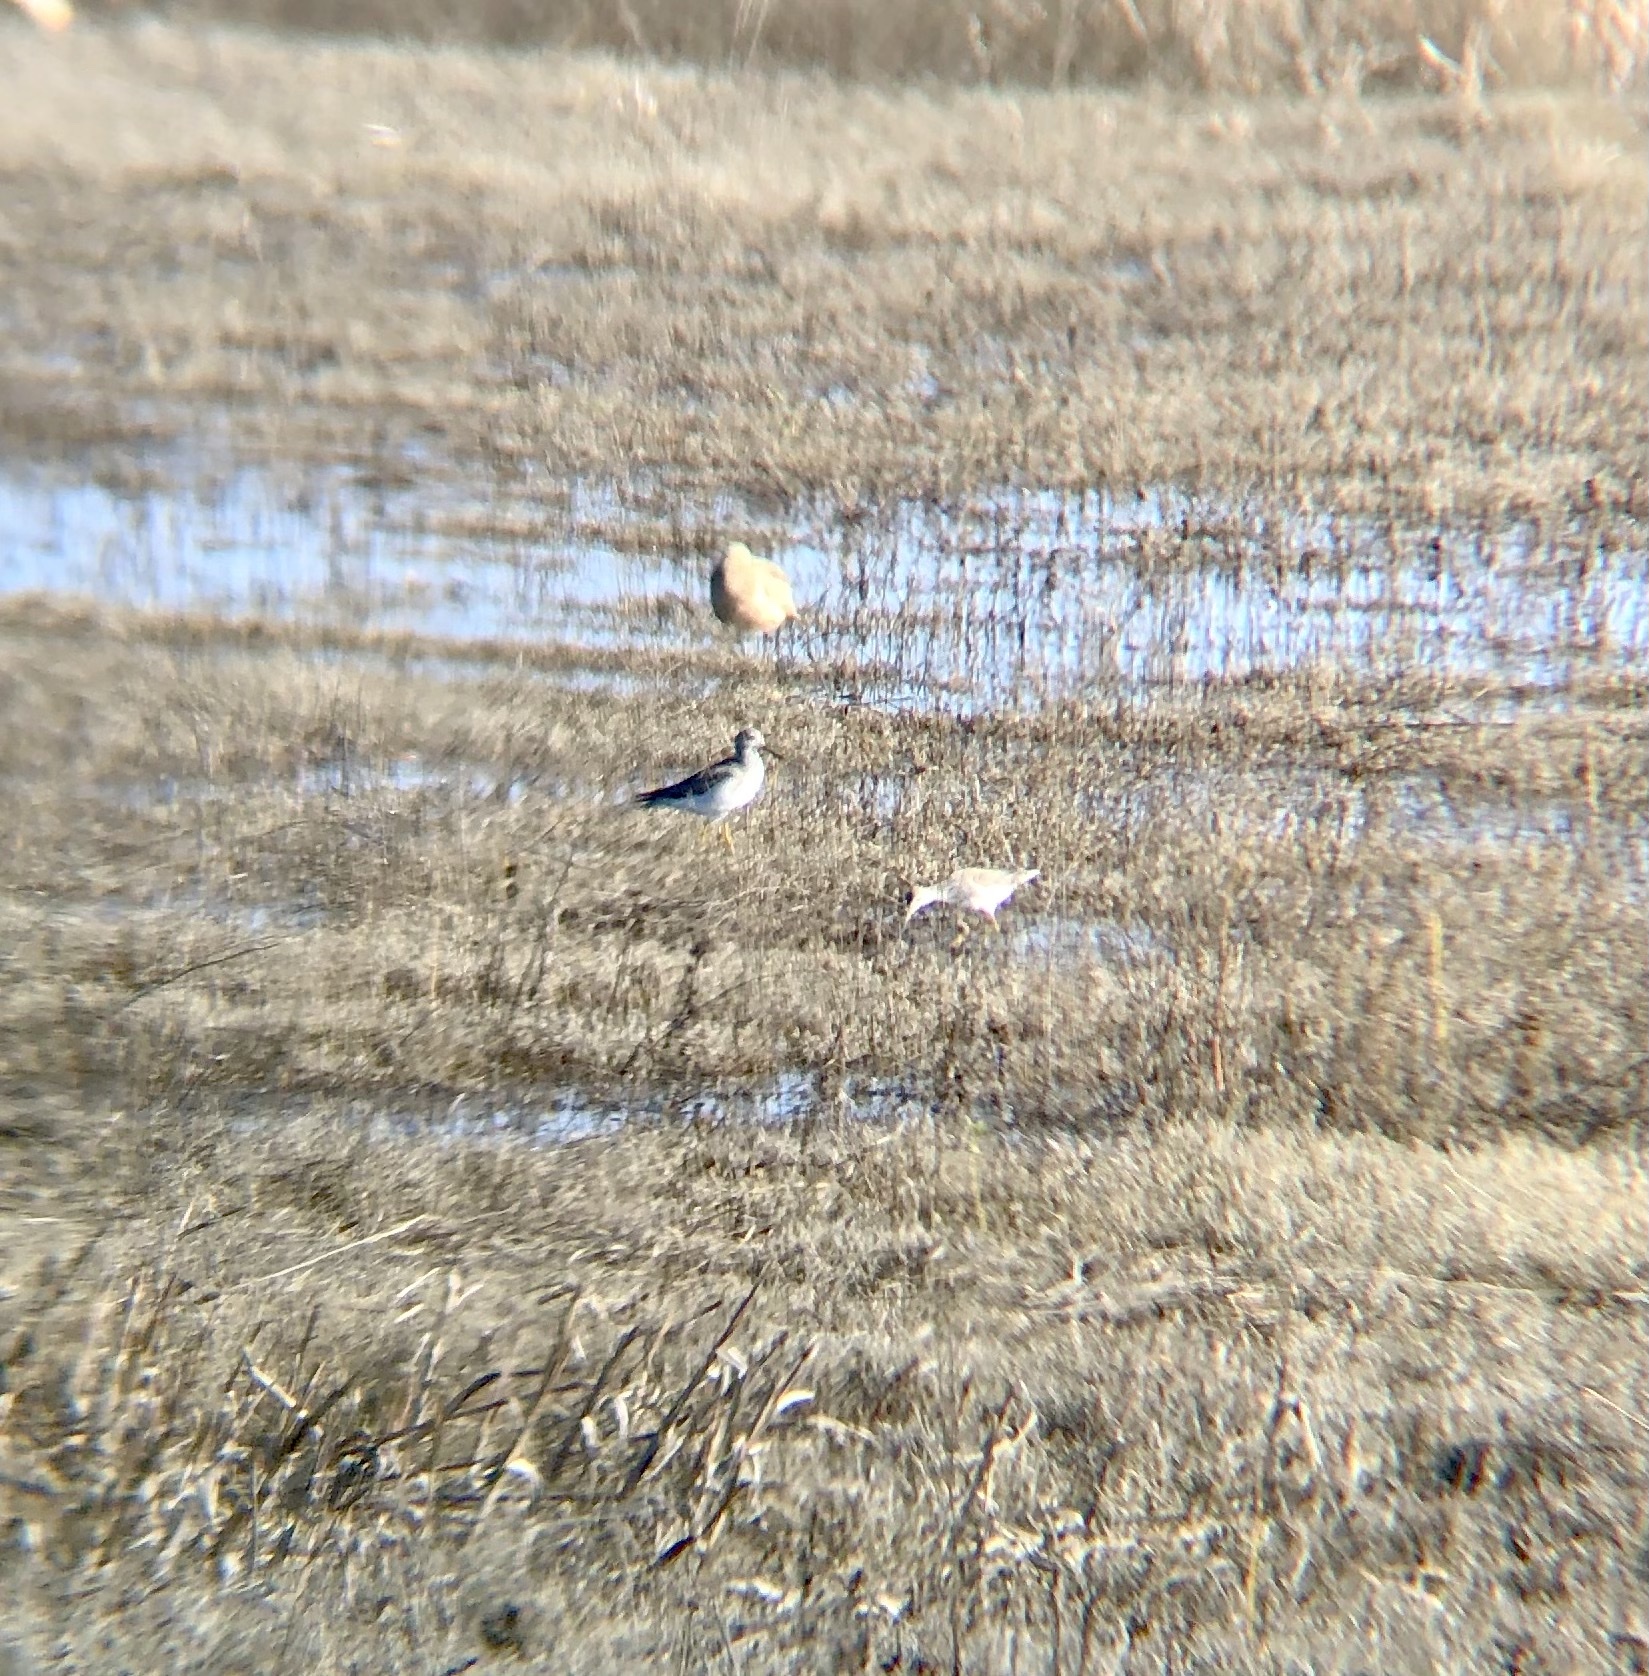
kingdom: Animalia
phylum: Chordata
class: Aves
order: Charadriiformes
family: Scolopacidae
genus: Tringa
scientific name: Tringa melanoleuca
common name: Greater yellowlegs
